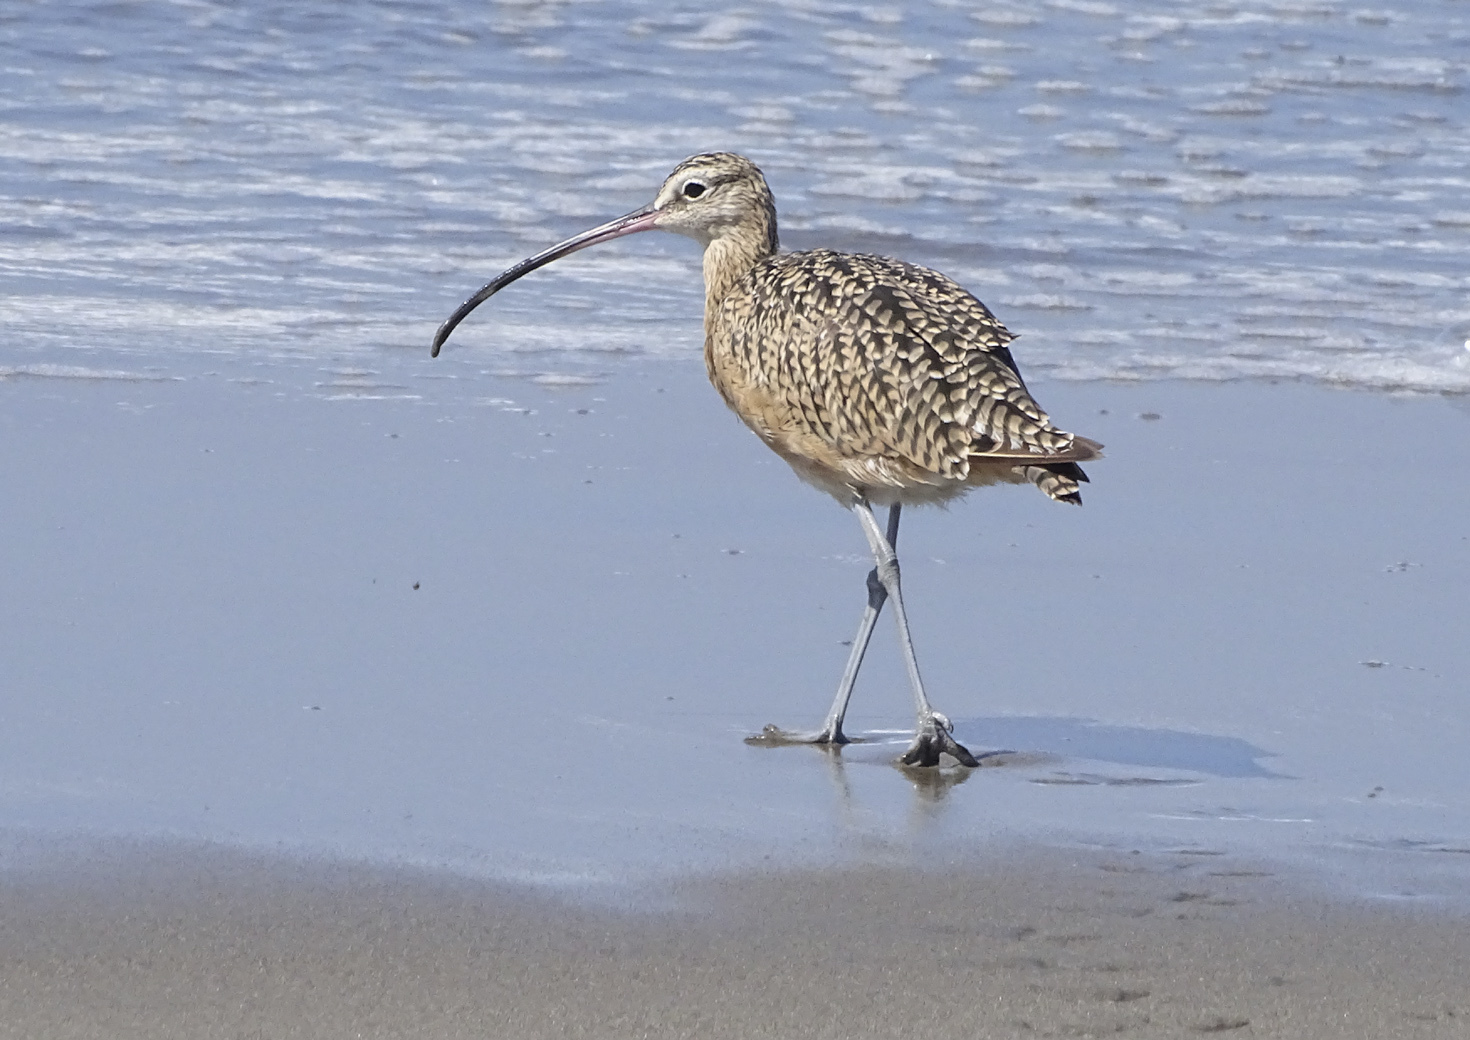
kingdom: Animalia
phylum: Chordata
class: Aves
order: Charadriiformes
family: Scolopacidae
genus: Numenius
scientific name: Numenius americanus
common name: Long-billed curlew
